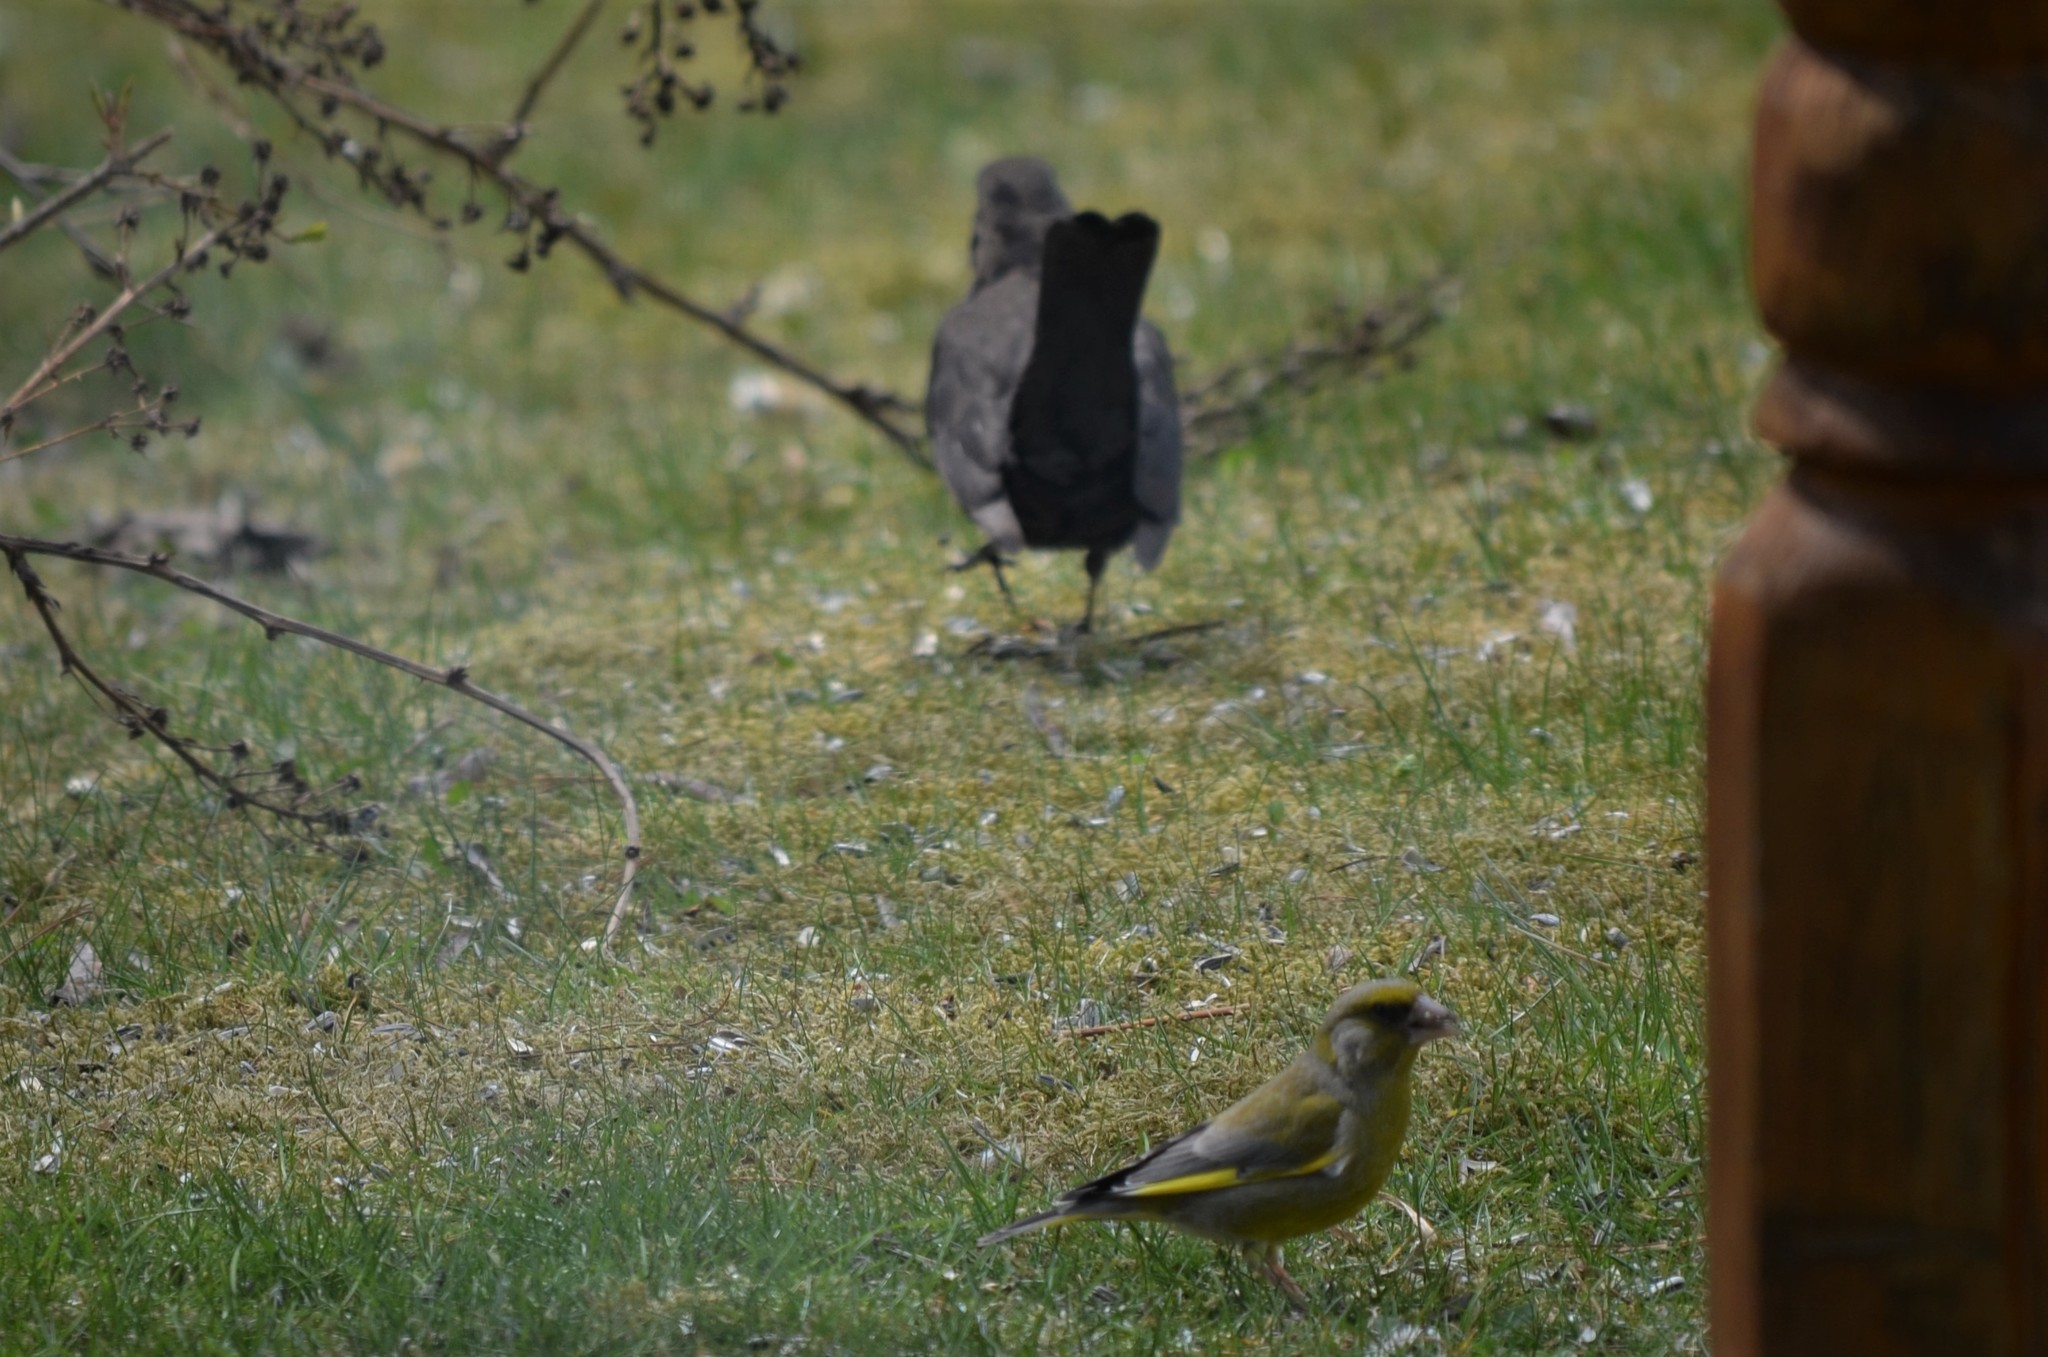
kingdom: Plantae
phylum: Tracheophyta
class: Liliopsida
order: Poales
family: Poaceae
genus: Chloris
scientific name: Chloris chloris
